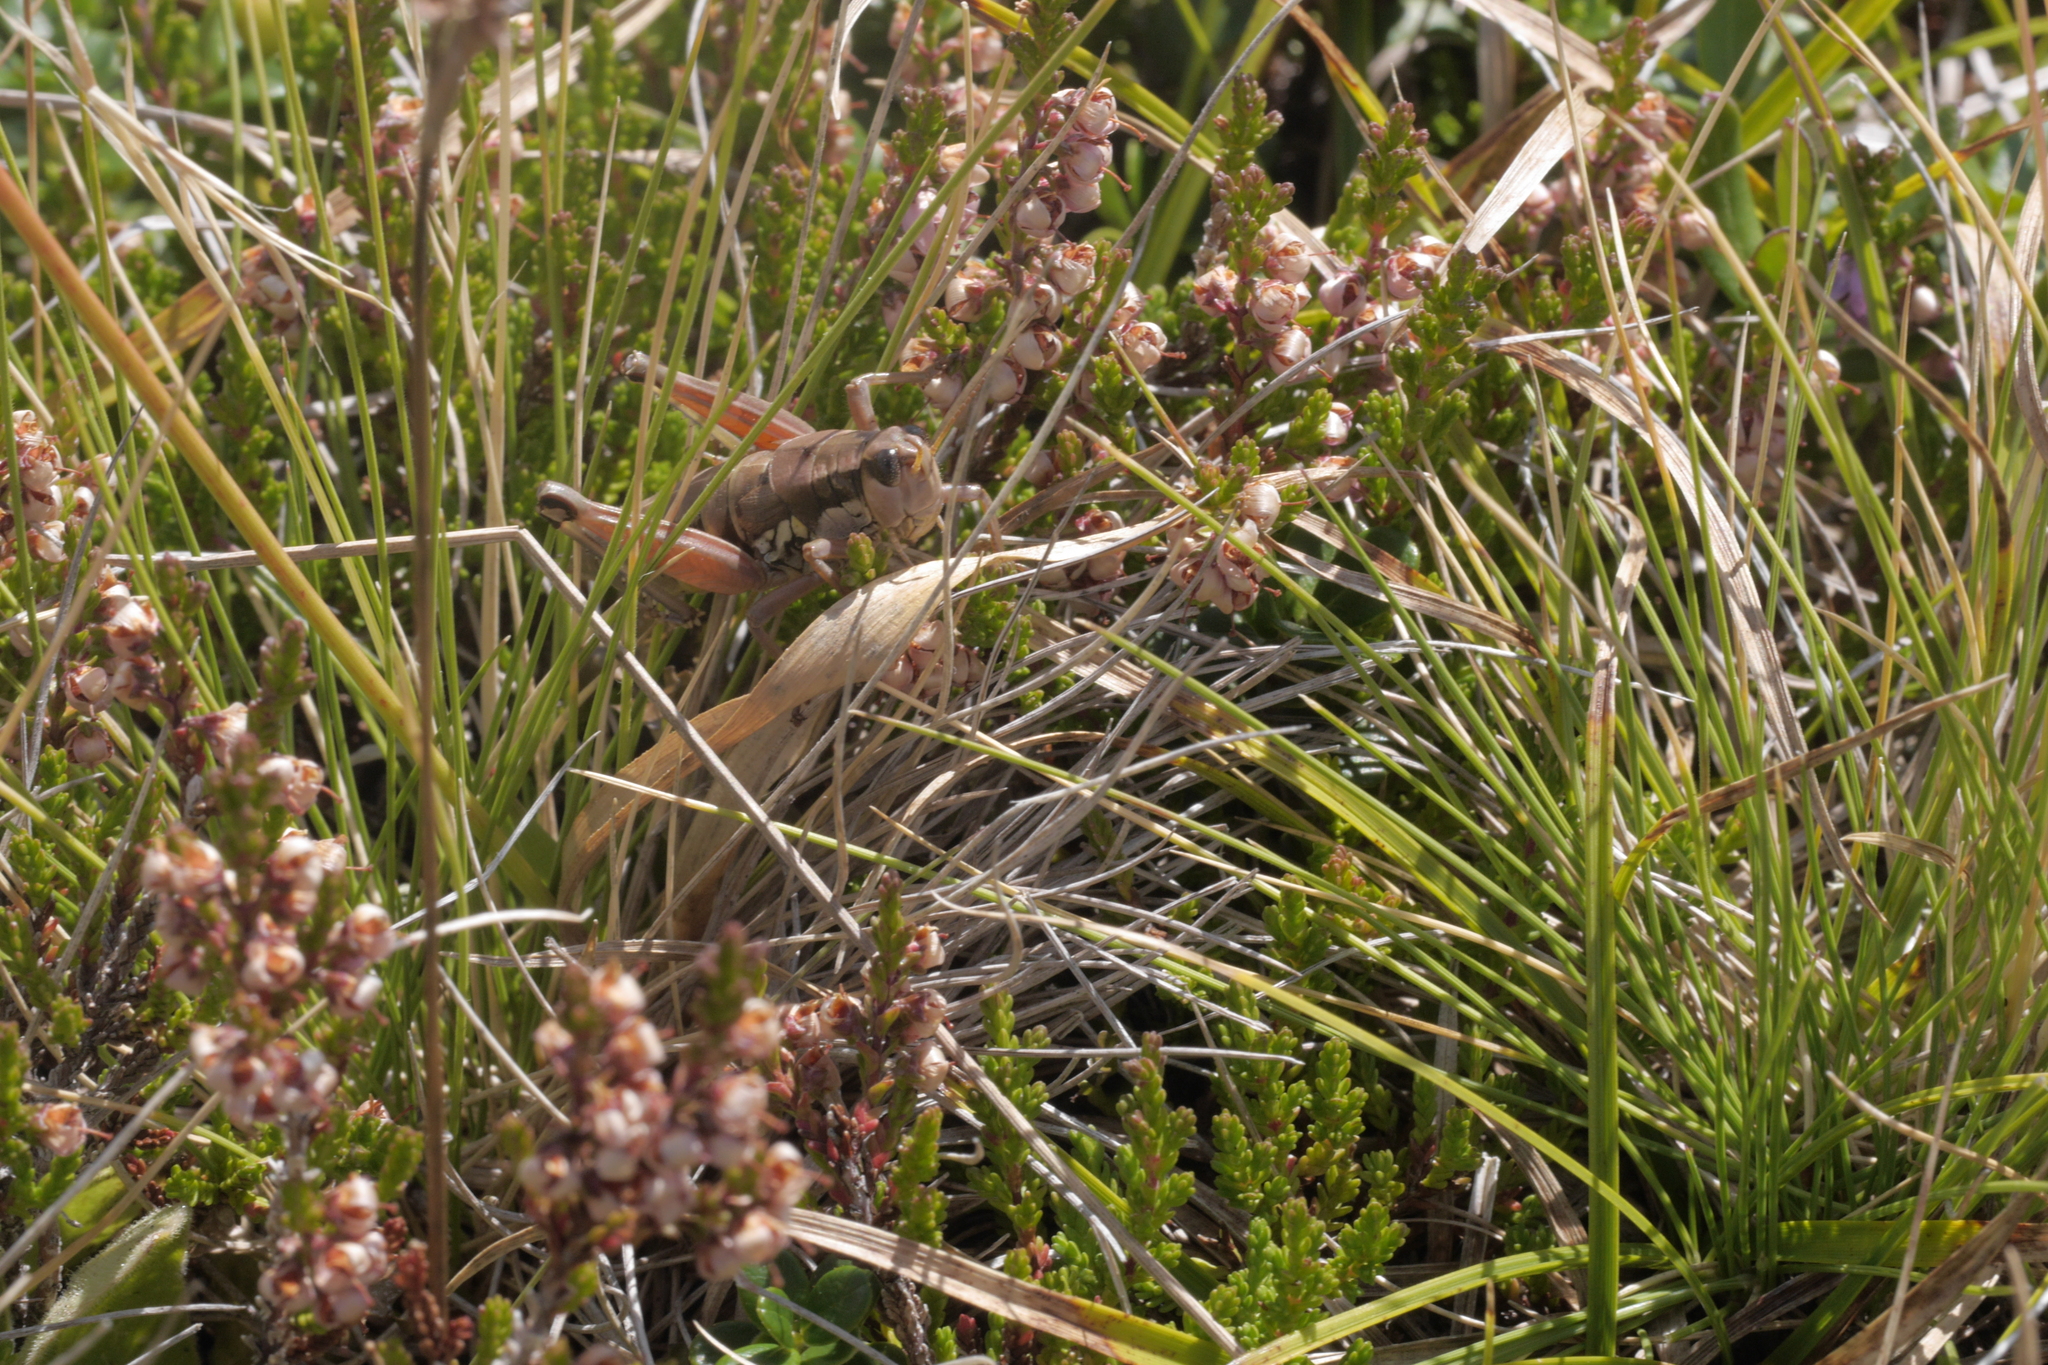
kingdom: Animalia
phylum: Arthropoda
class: Insecta
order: Orthoptera
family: Acrididae
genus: Podisma
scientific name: Podisma pedestris
